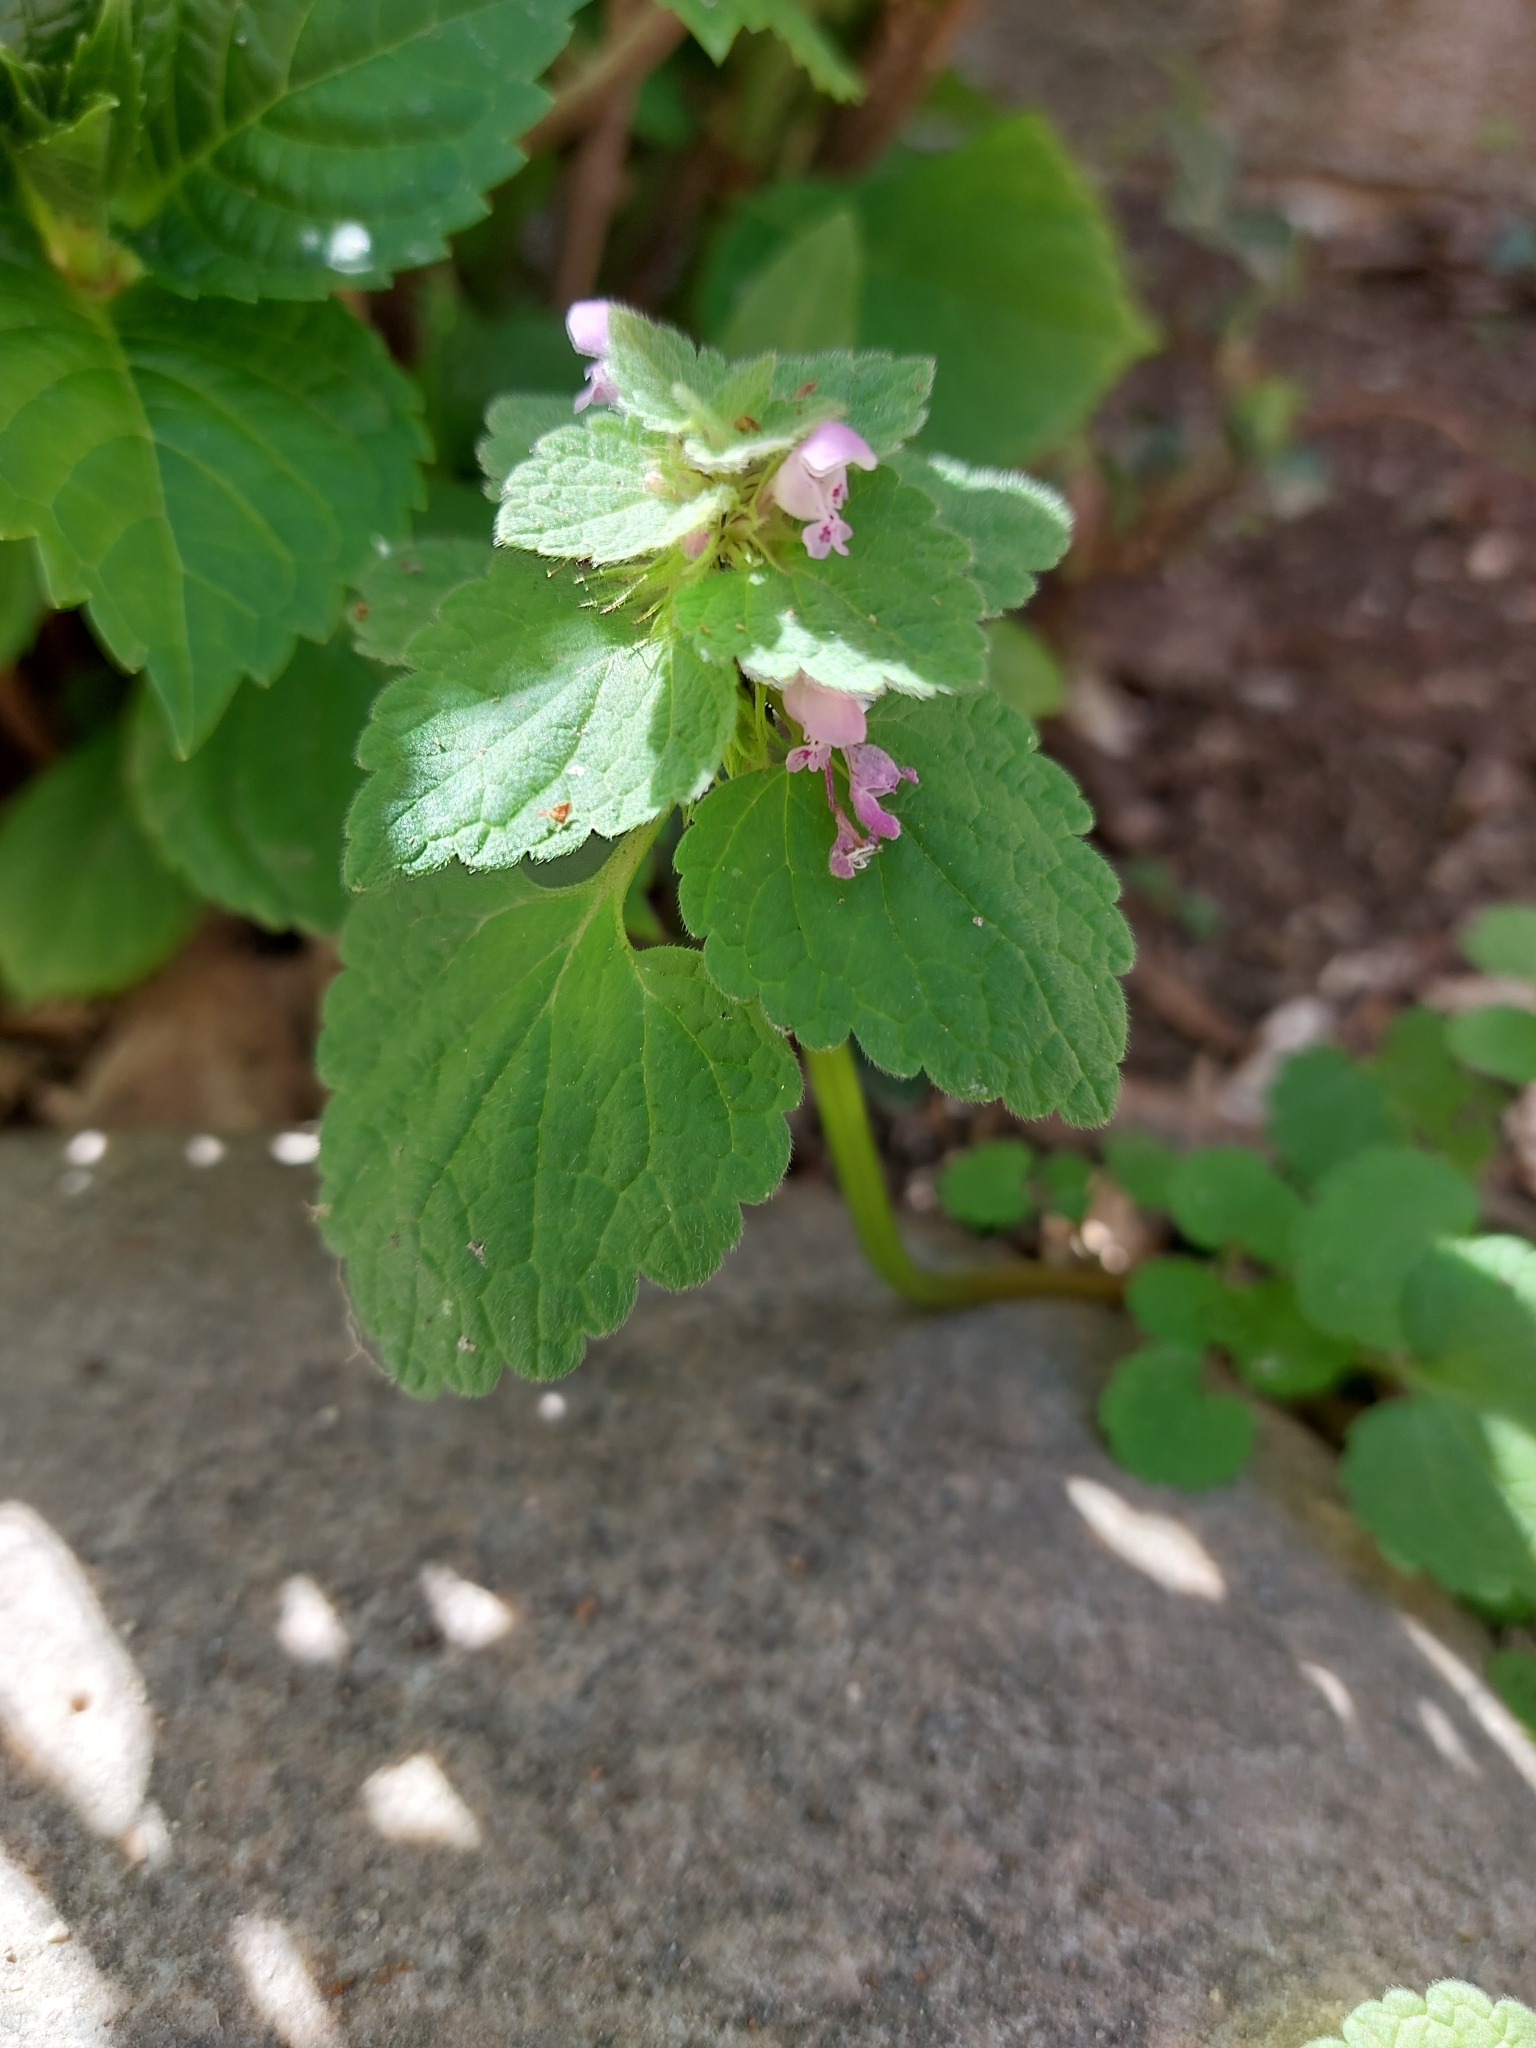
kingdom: Plantae
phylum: Tracheophyta
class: Magnoliopsida
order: Lamiales
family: Lamiaceae
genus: Lamium
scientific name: Lamium purpureum
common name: Red dead-nettle
